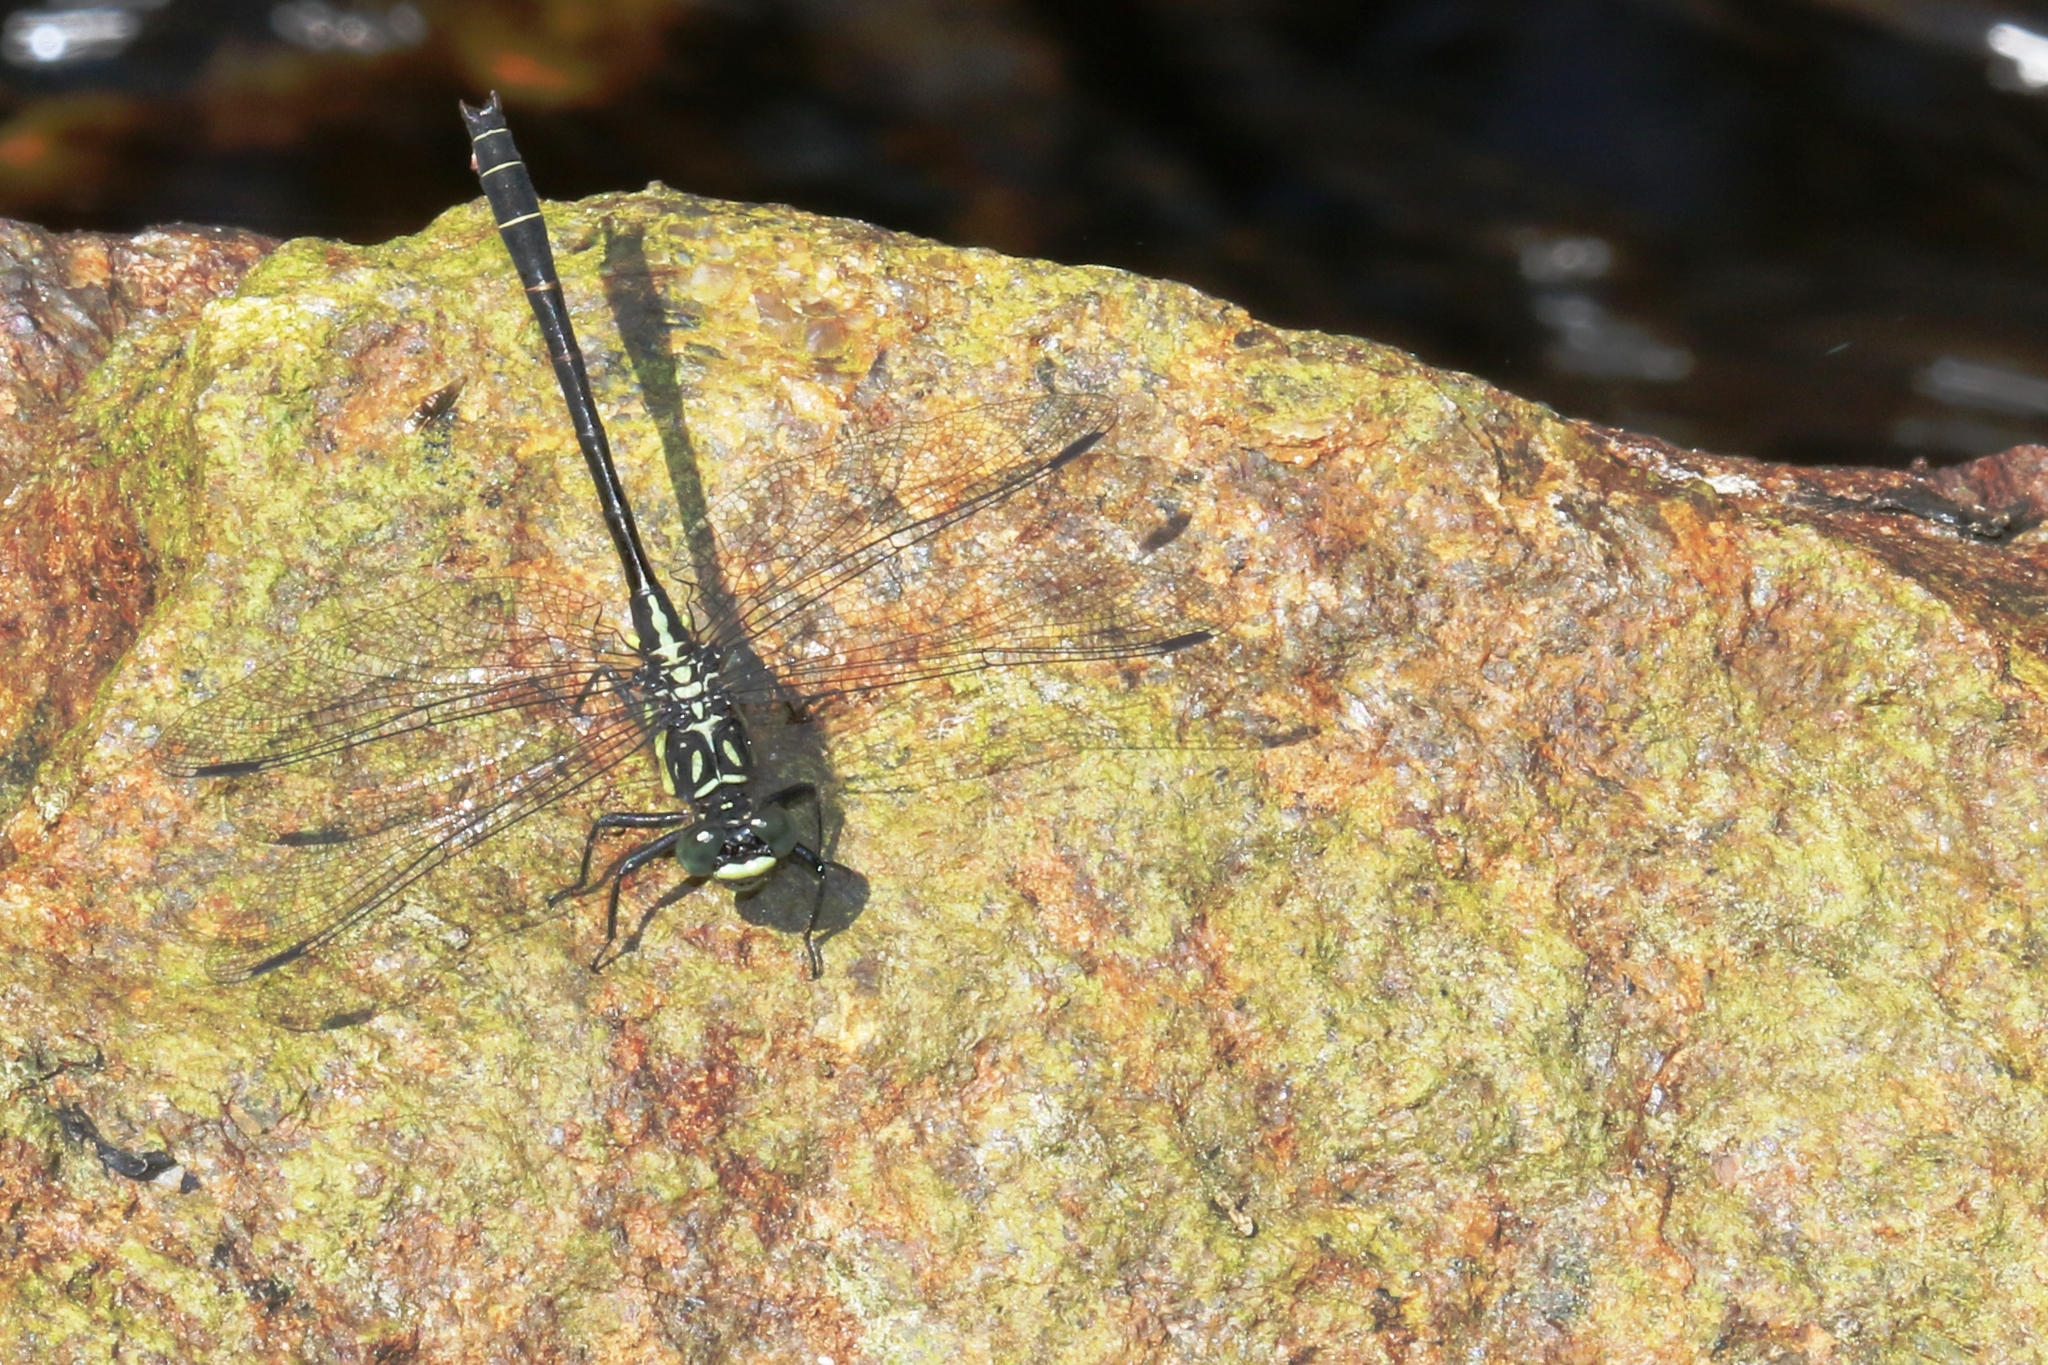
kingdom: Animalia
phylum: Arthropoda
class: Insecta
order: Odonata
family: Gomphidae
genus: Lanthus
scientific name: Lanthus parvulus
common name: Northern pygmy clubtail
